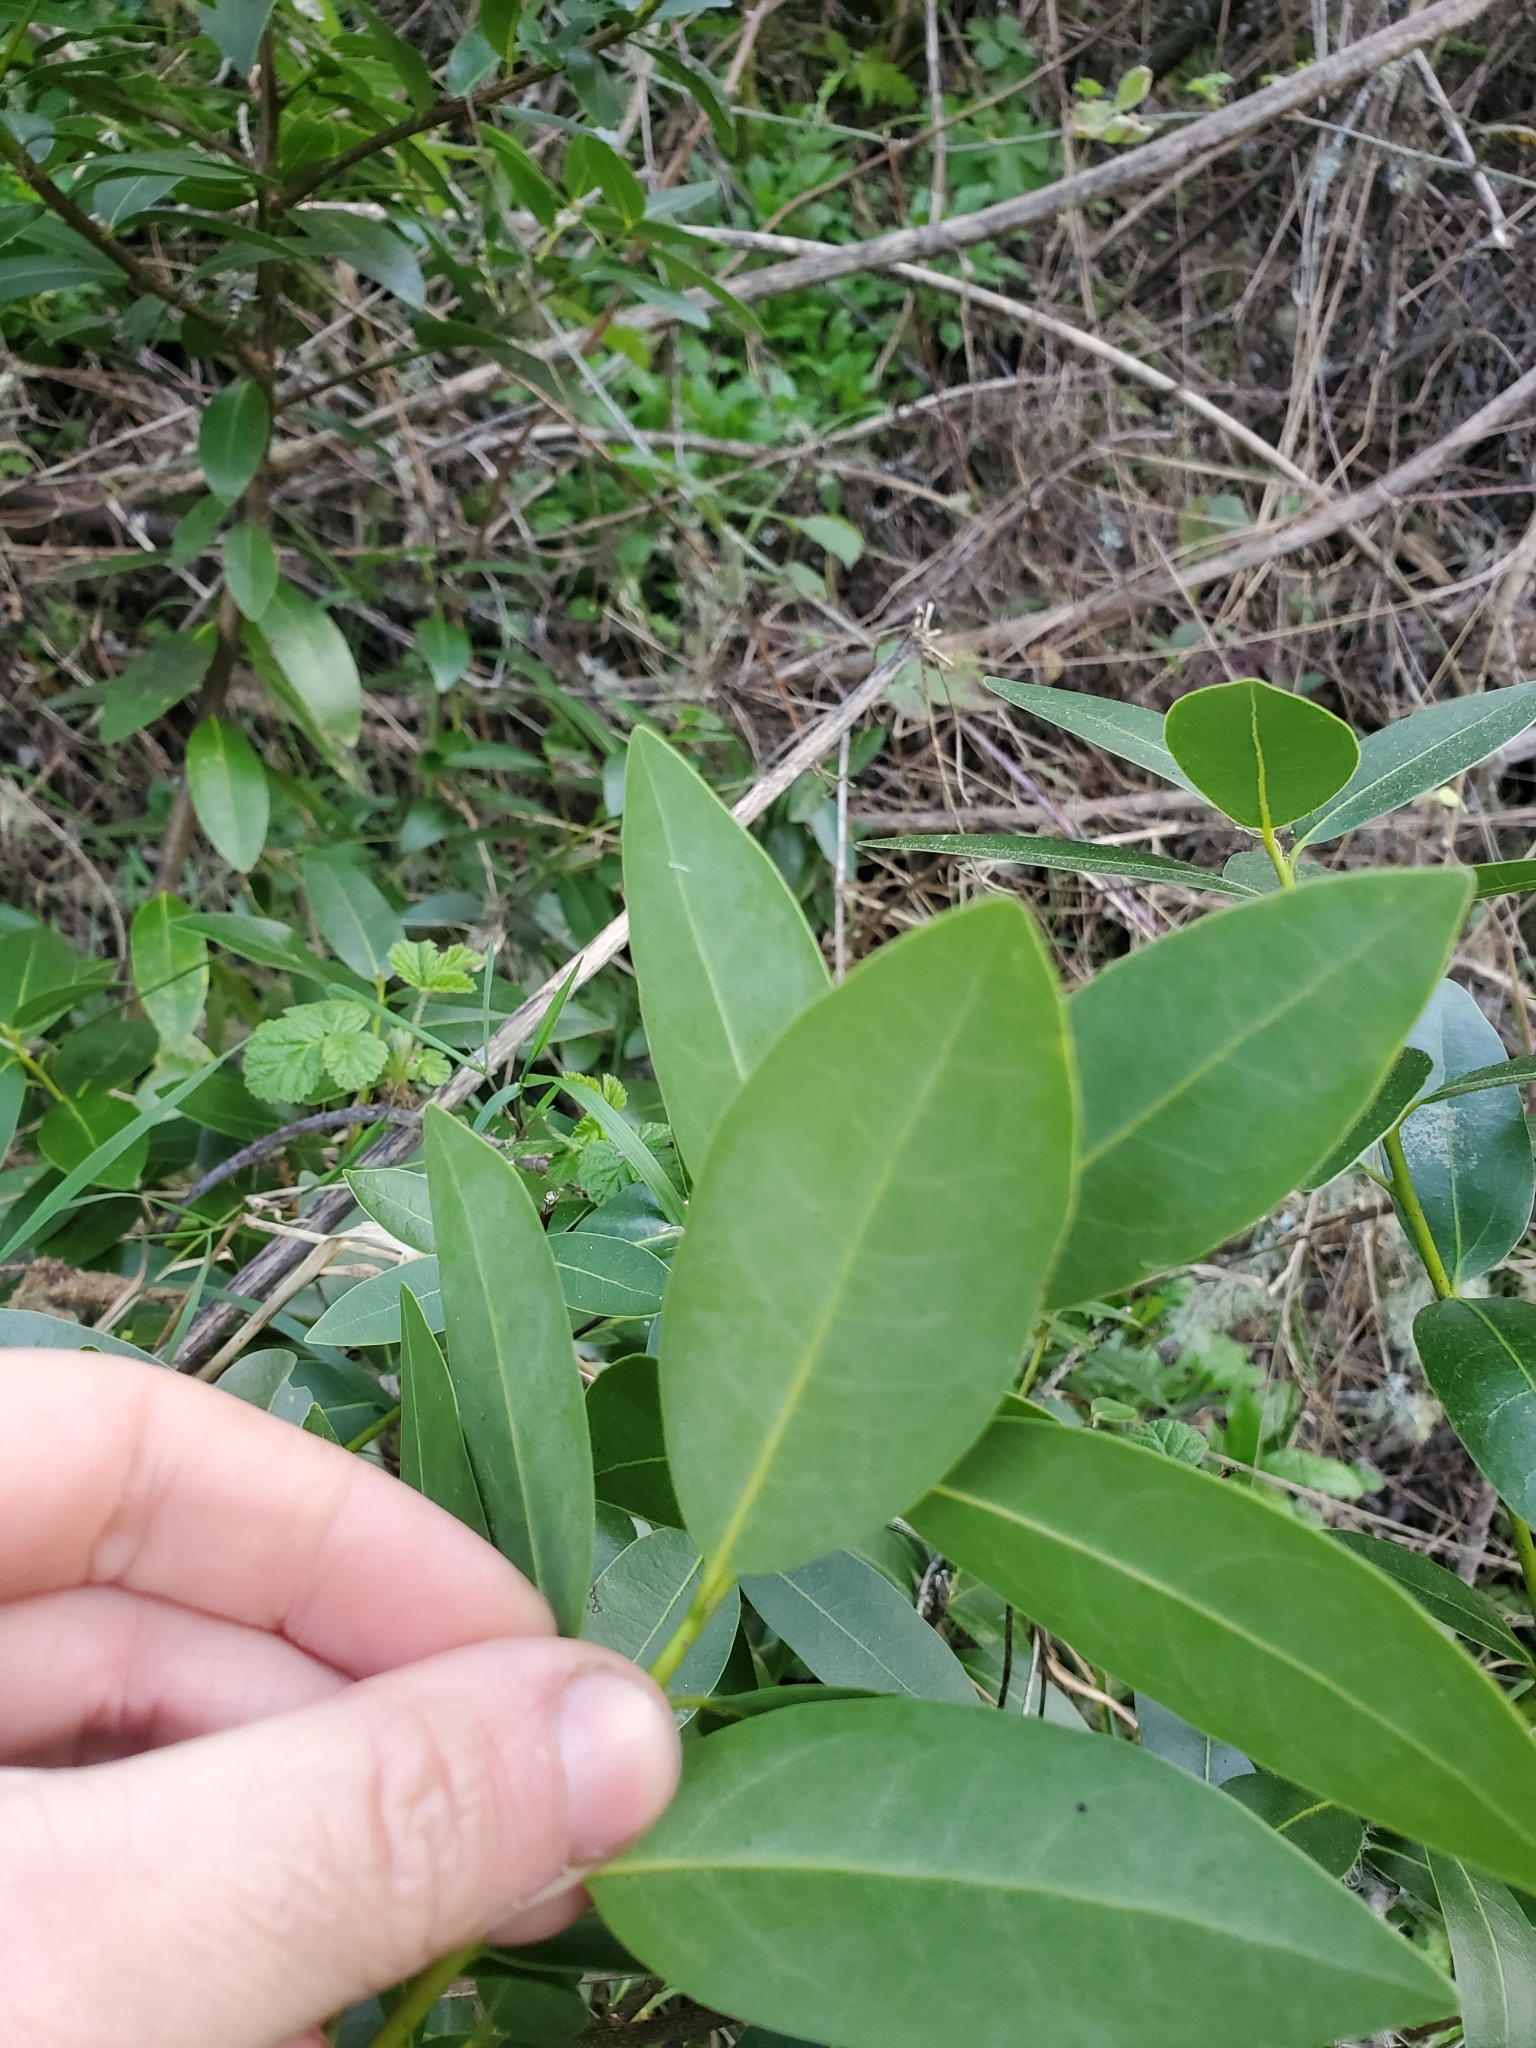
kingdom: Plantae
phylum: Tracheophyta
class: Magnoliopsida
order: Laurales
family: Lauraceae
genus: Umbellularia
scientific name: Umbellularia californica
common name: California bay
